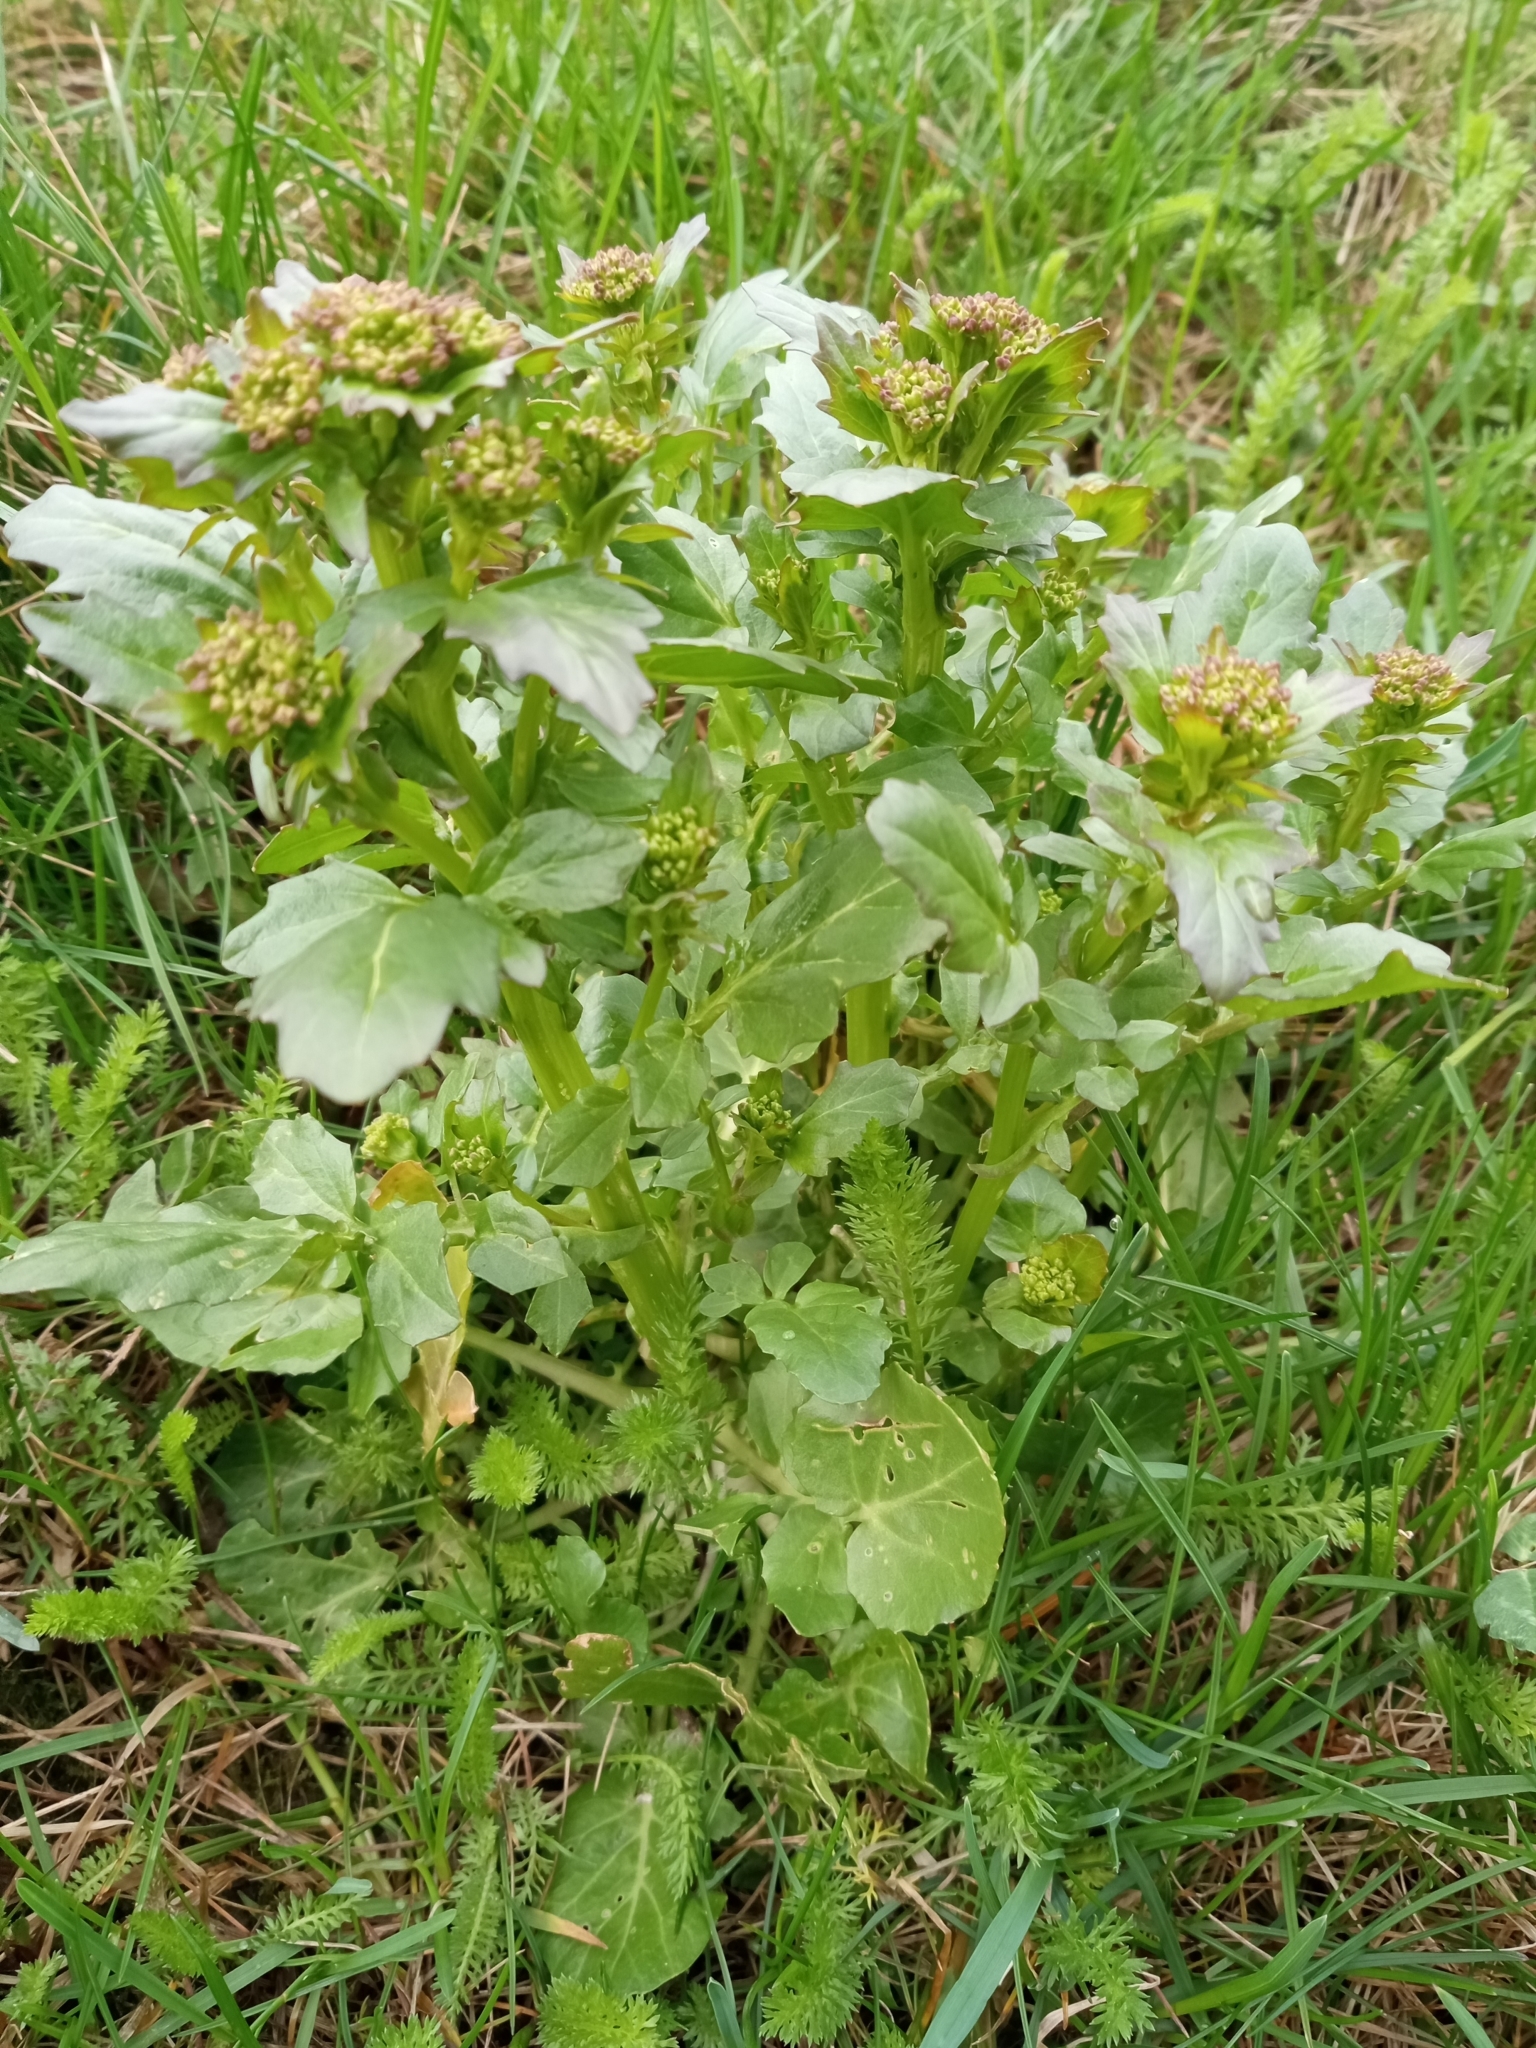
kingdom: Plantae
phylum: Tracheophyta
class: Magnoliopsida
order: Brassicales
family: Brassicaceae
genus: Barbarea
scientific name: Barbarea vulgaris
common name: Cressy-greens
